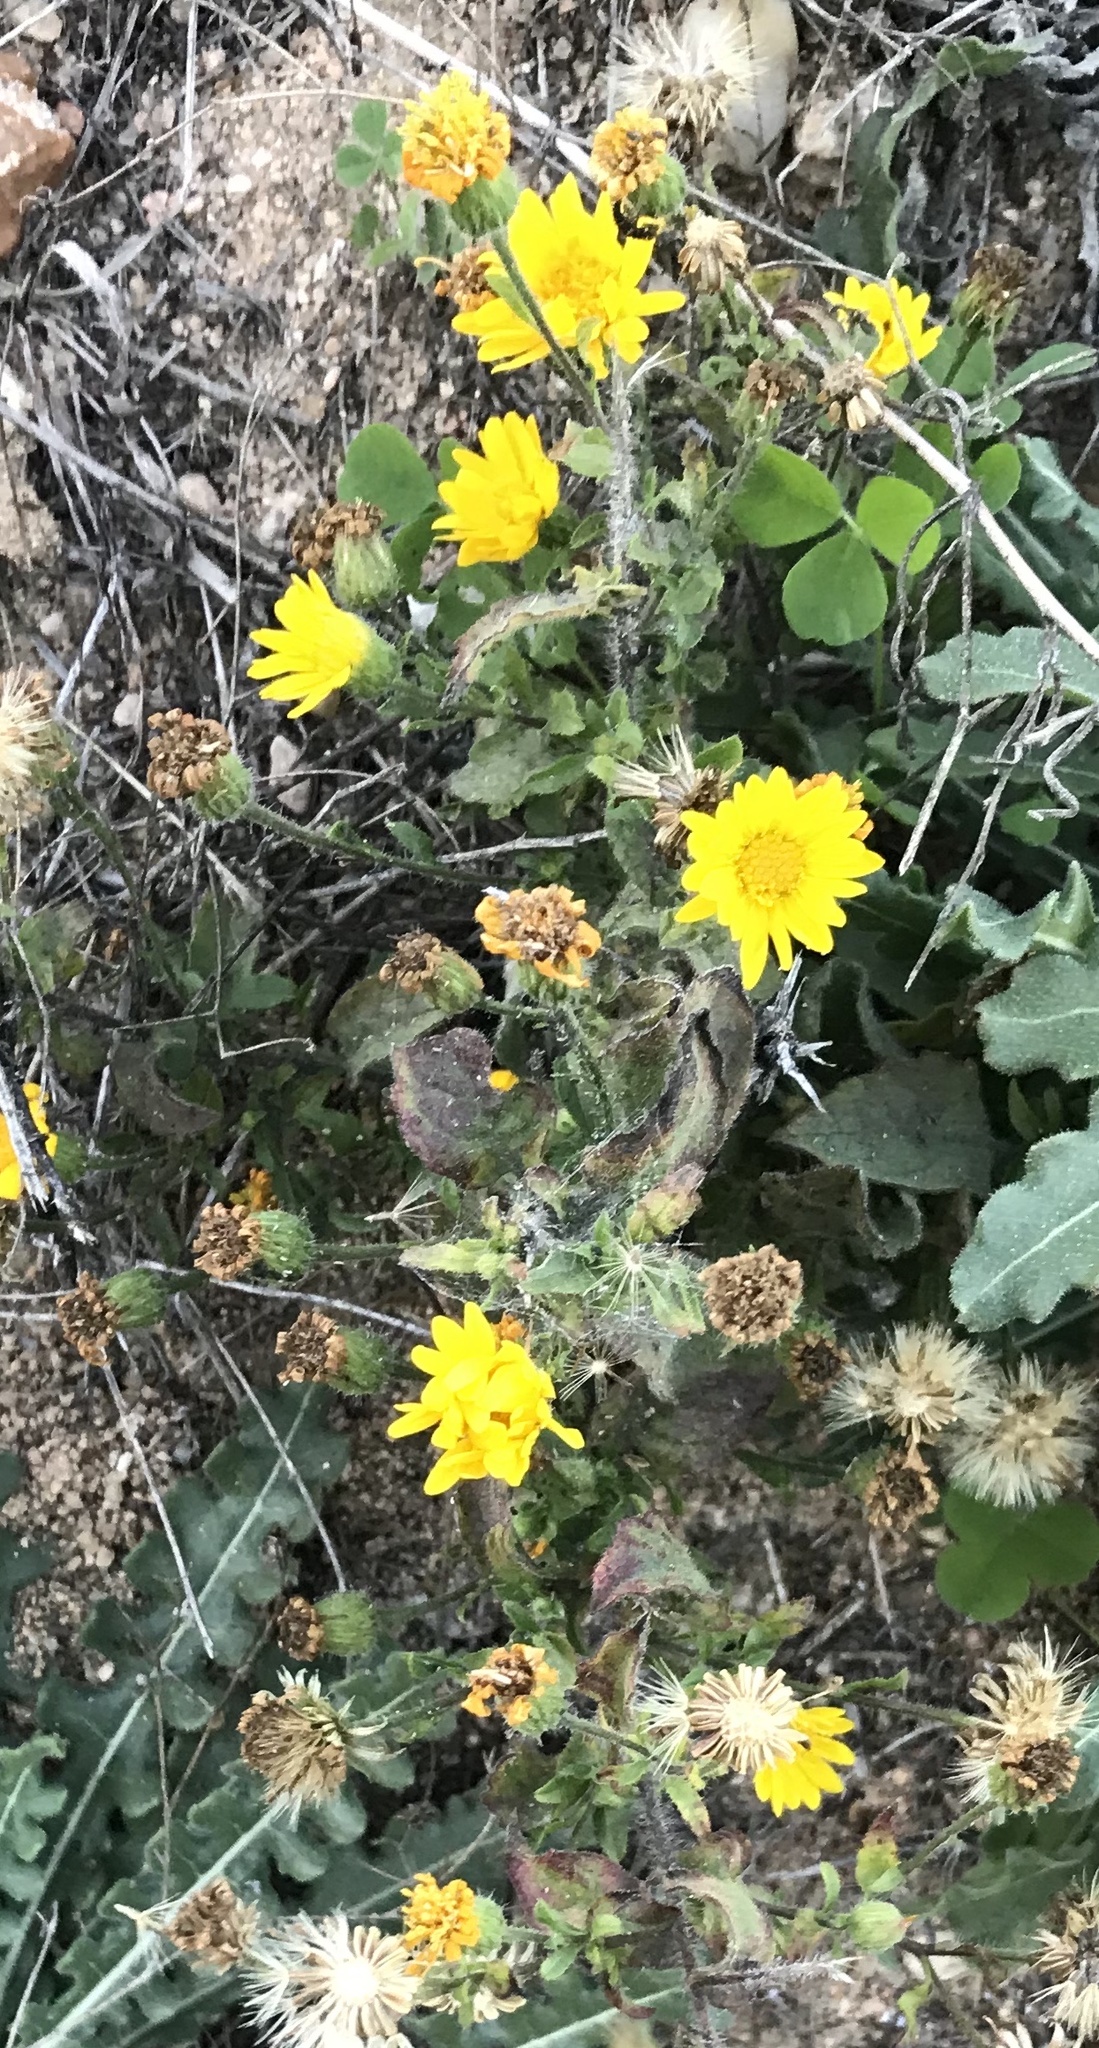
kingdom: Plantae
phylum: Tracheophyta
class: Magnoliopsida
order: Asterales
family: Asteraceae
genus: Heterotheca
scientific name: Heterotheca subaxillaris
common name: Camphorweed
